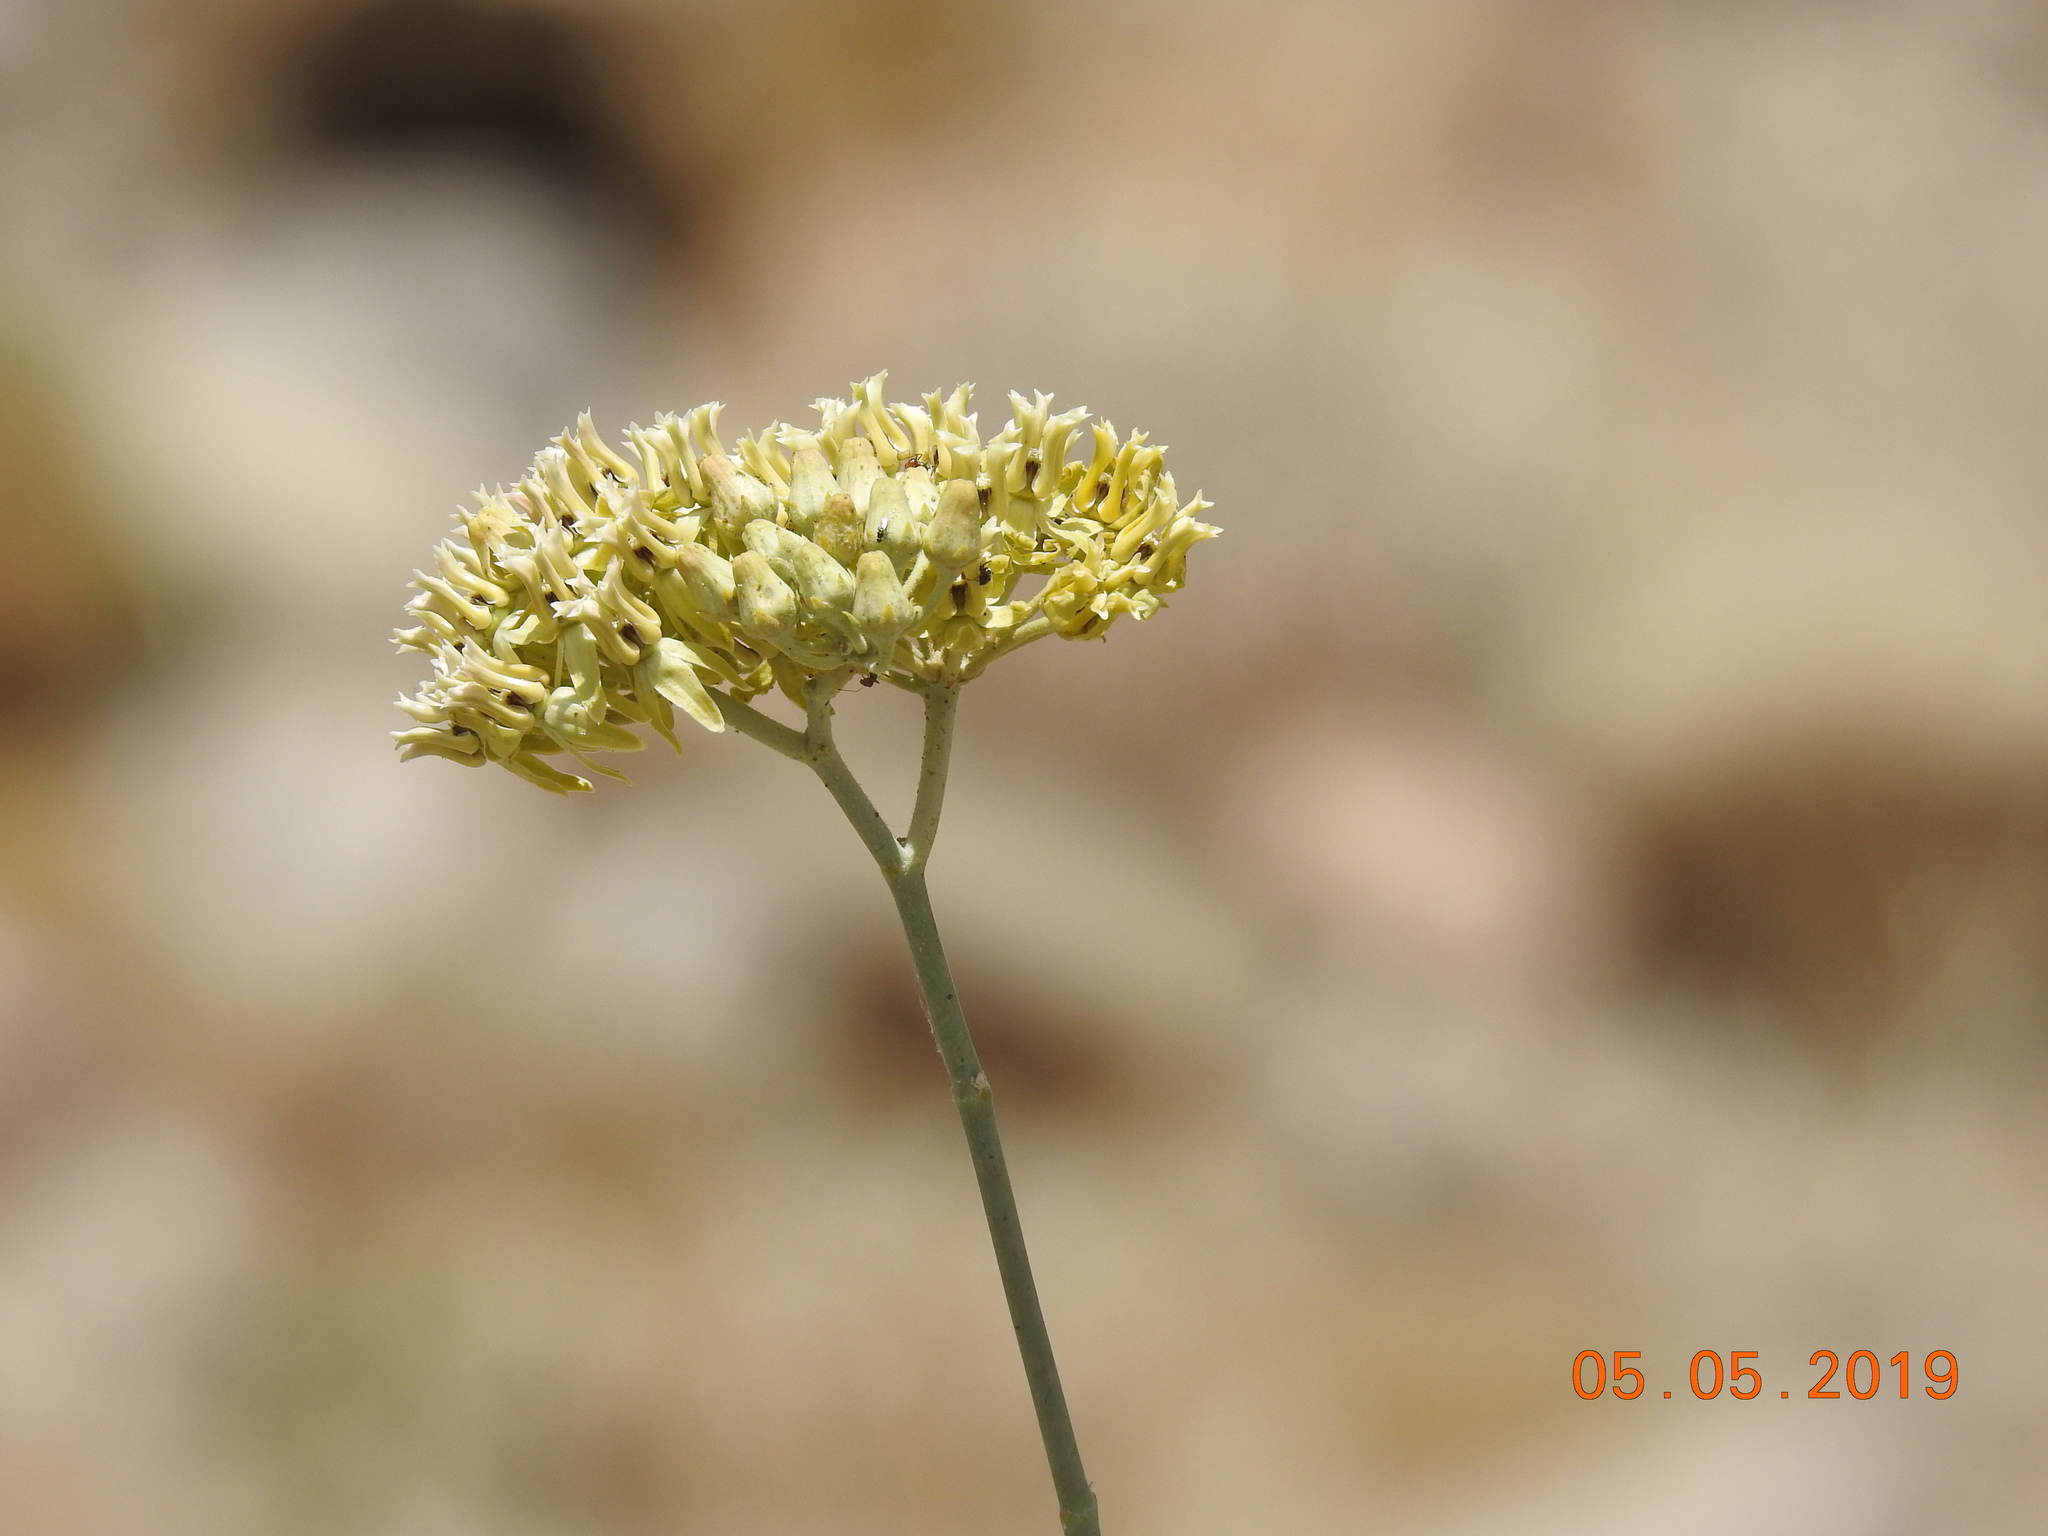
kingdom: Plantae
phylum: Tracheophyta
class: Magnoliopsida
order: Gentianales
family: Apocynaceae
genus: Asclepias
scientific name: Asclepias subulata
